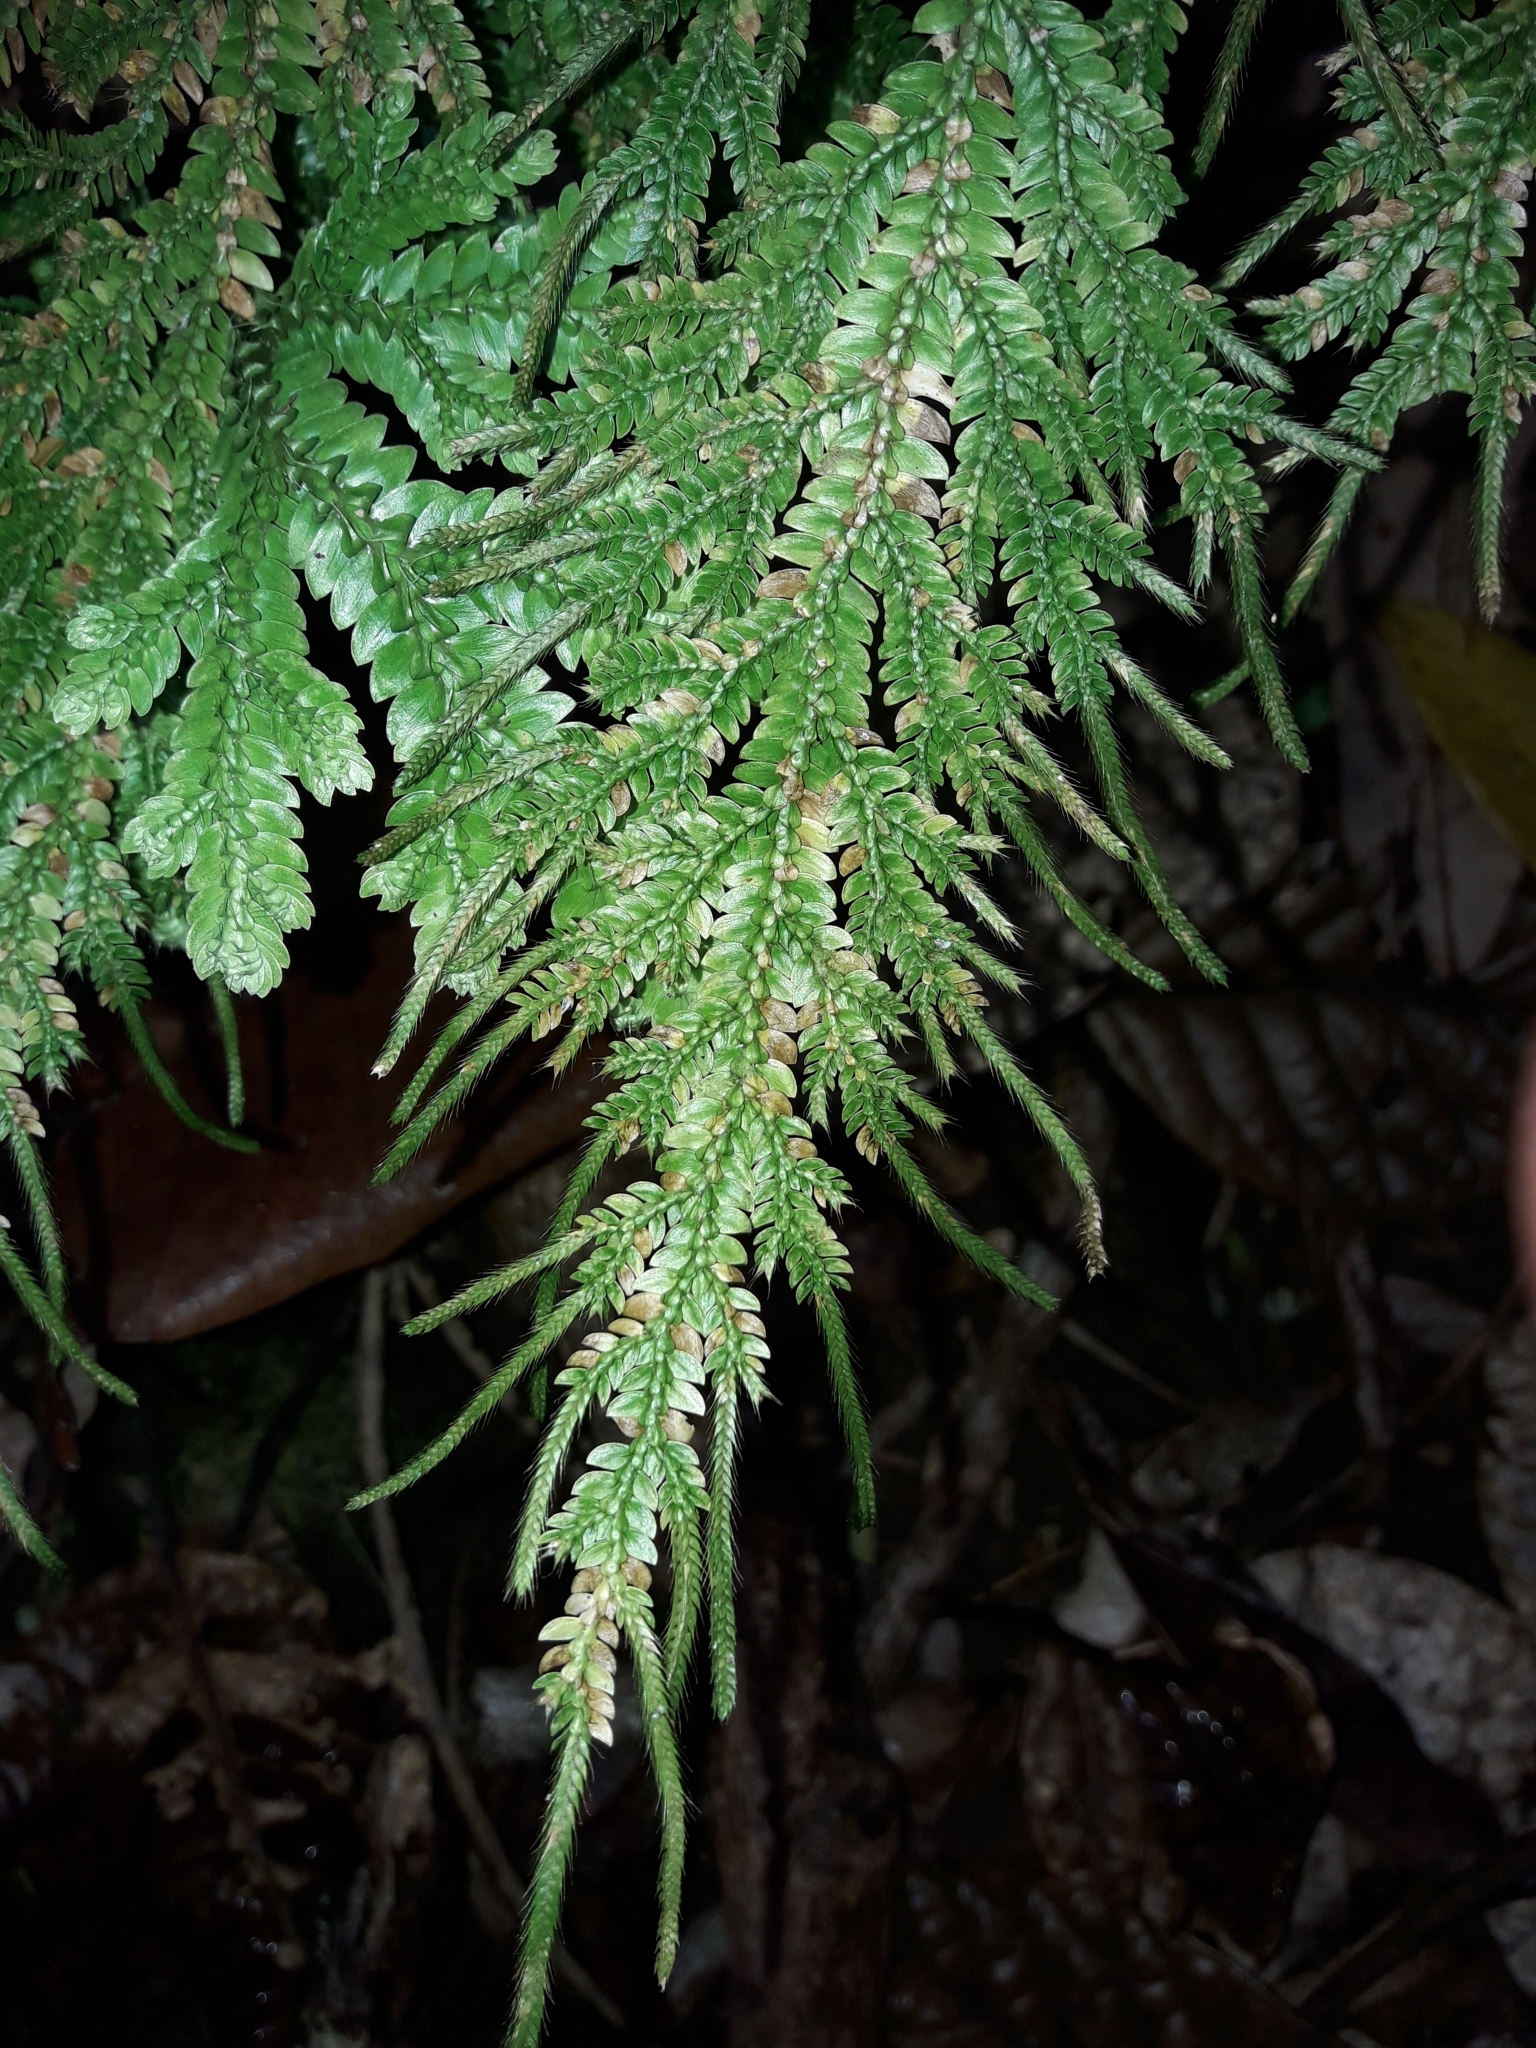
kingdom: Plantae
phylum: Tracheophyta
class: Lycopodiopsida
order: Selaginellales
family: Selaginellaceae
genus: Selaginella
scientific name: Selaginella hordeiformis
